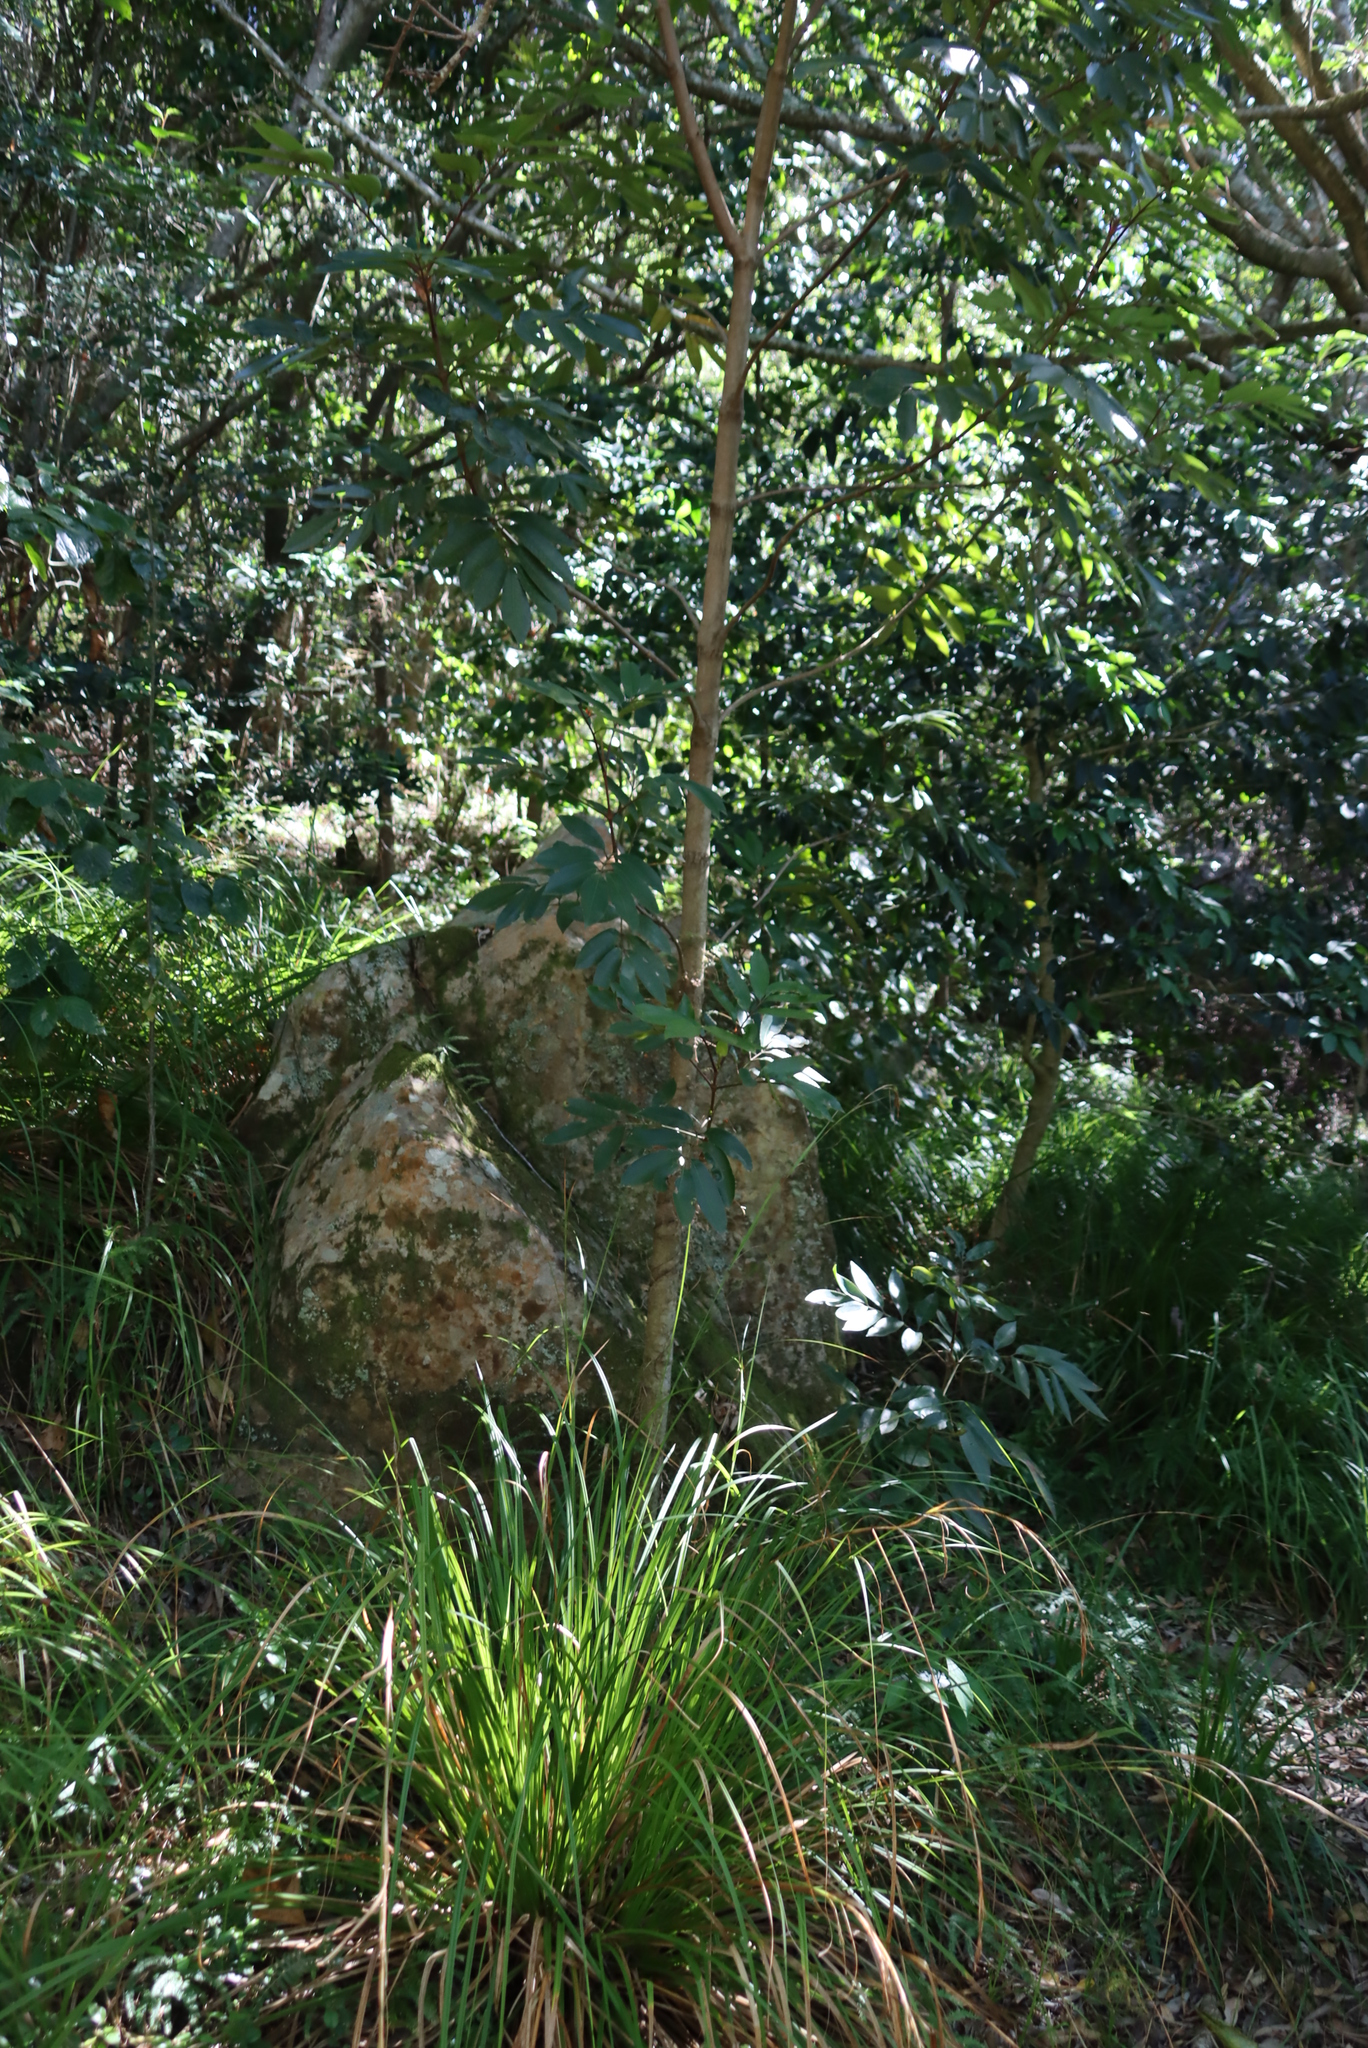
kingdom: Plantae
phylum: Tracheophyta
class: Magnoliopsida
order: Oxalidales
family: Cunoniaceae
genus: Cunonia
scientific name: Cunonia capensis
